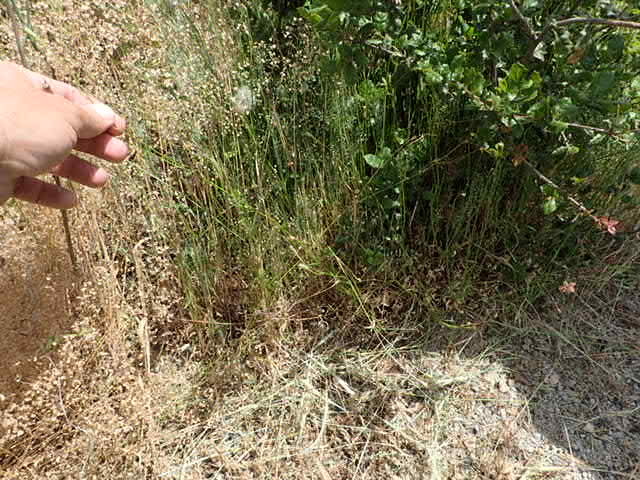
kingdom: Plantae
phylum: Tracheophyta
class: Magnoliopsida
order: Asterales
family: Campanulaceae
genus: Wahlenbergia
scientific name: Wahlenbergia marginata
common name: Southern rockbell
